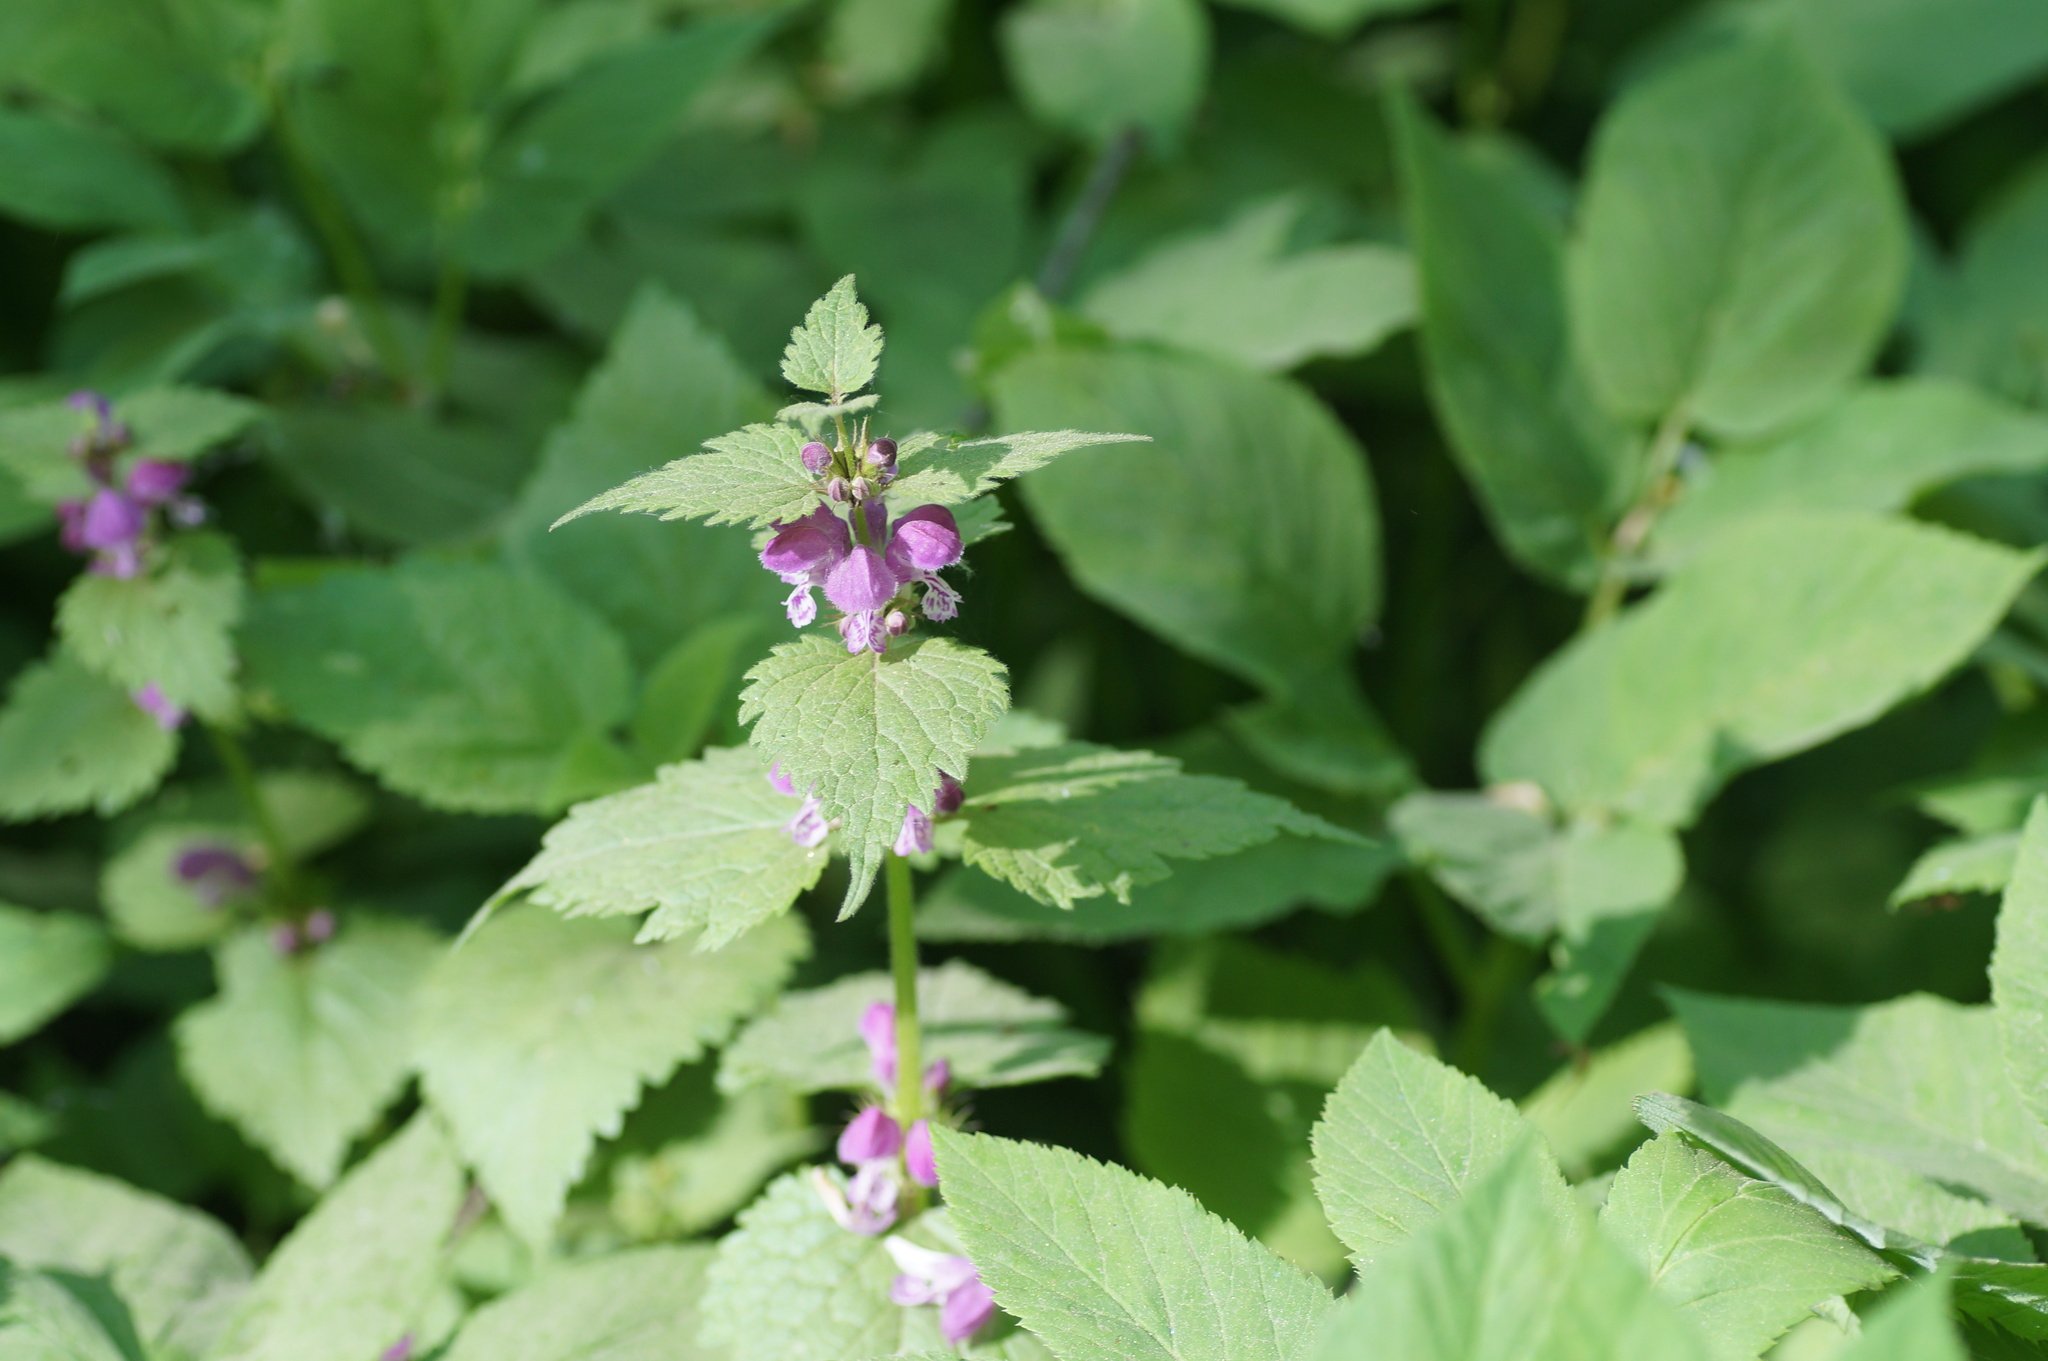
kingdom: Plantae
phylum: Tracheophyta
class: Magnoliopsida
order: Lamiales
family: Lamiaceae
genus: Lamium
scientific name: Lamium maculatum
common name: Spotted dead-nettle
